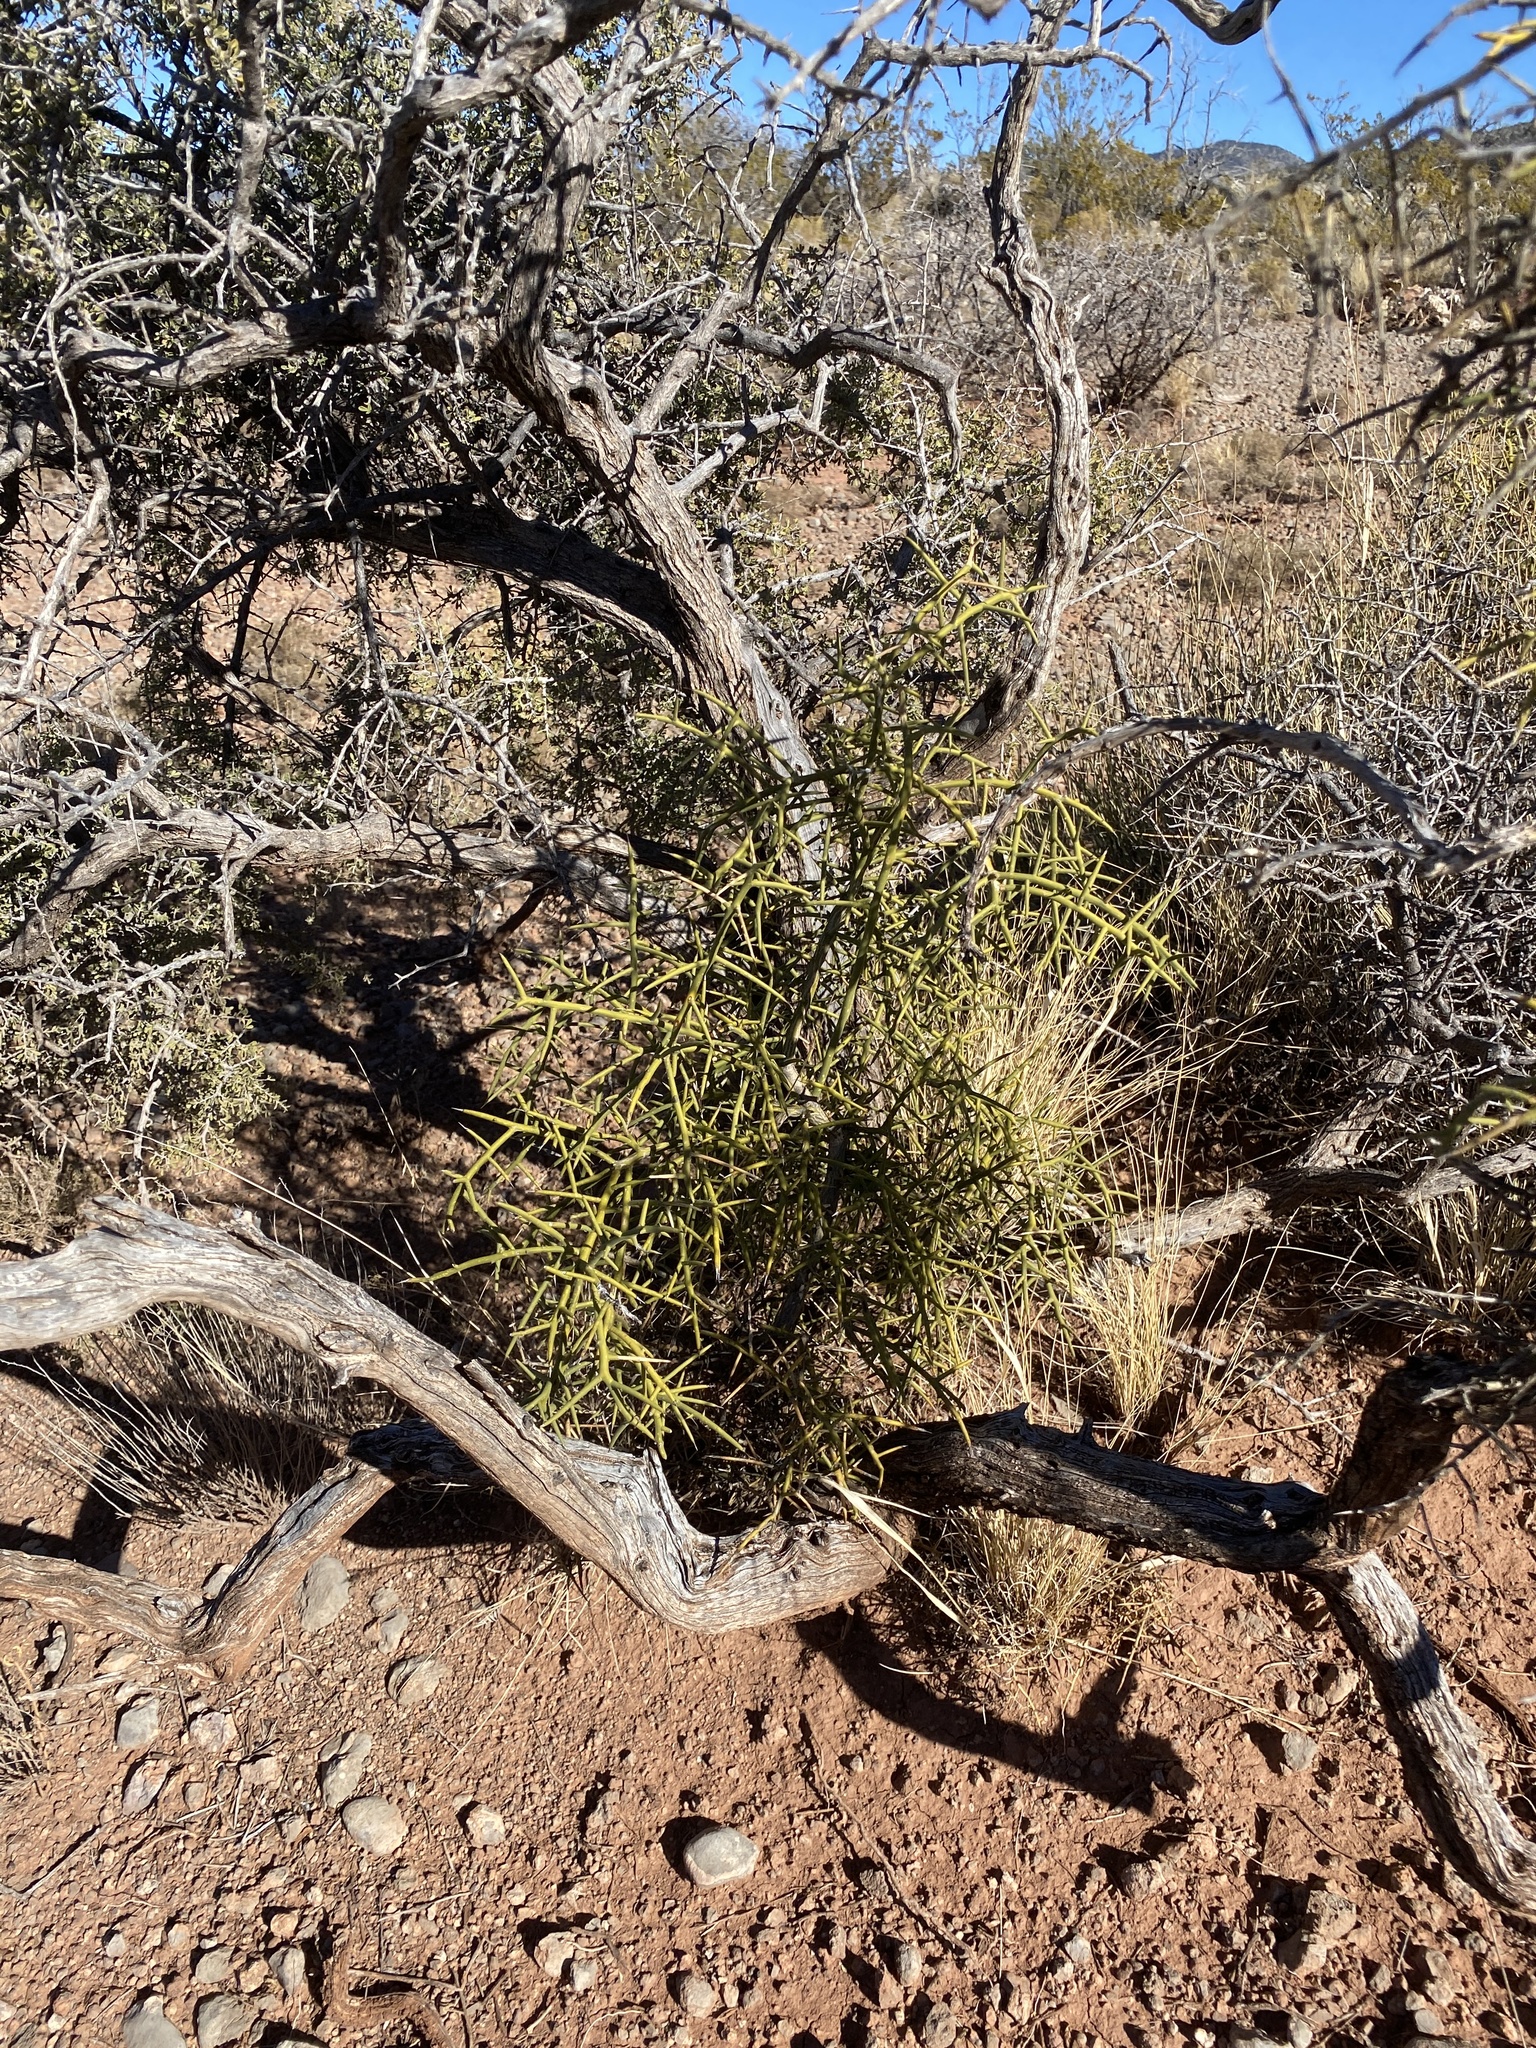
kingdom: Plantae
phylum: Tracheophyta
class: Magnoliopsida
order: Brassicales
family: Koeberliniaceae
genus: Koeberlinia
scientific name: Koeberlinia spinosa
